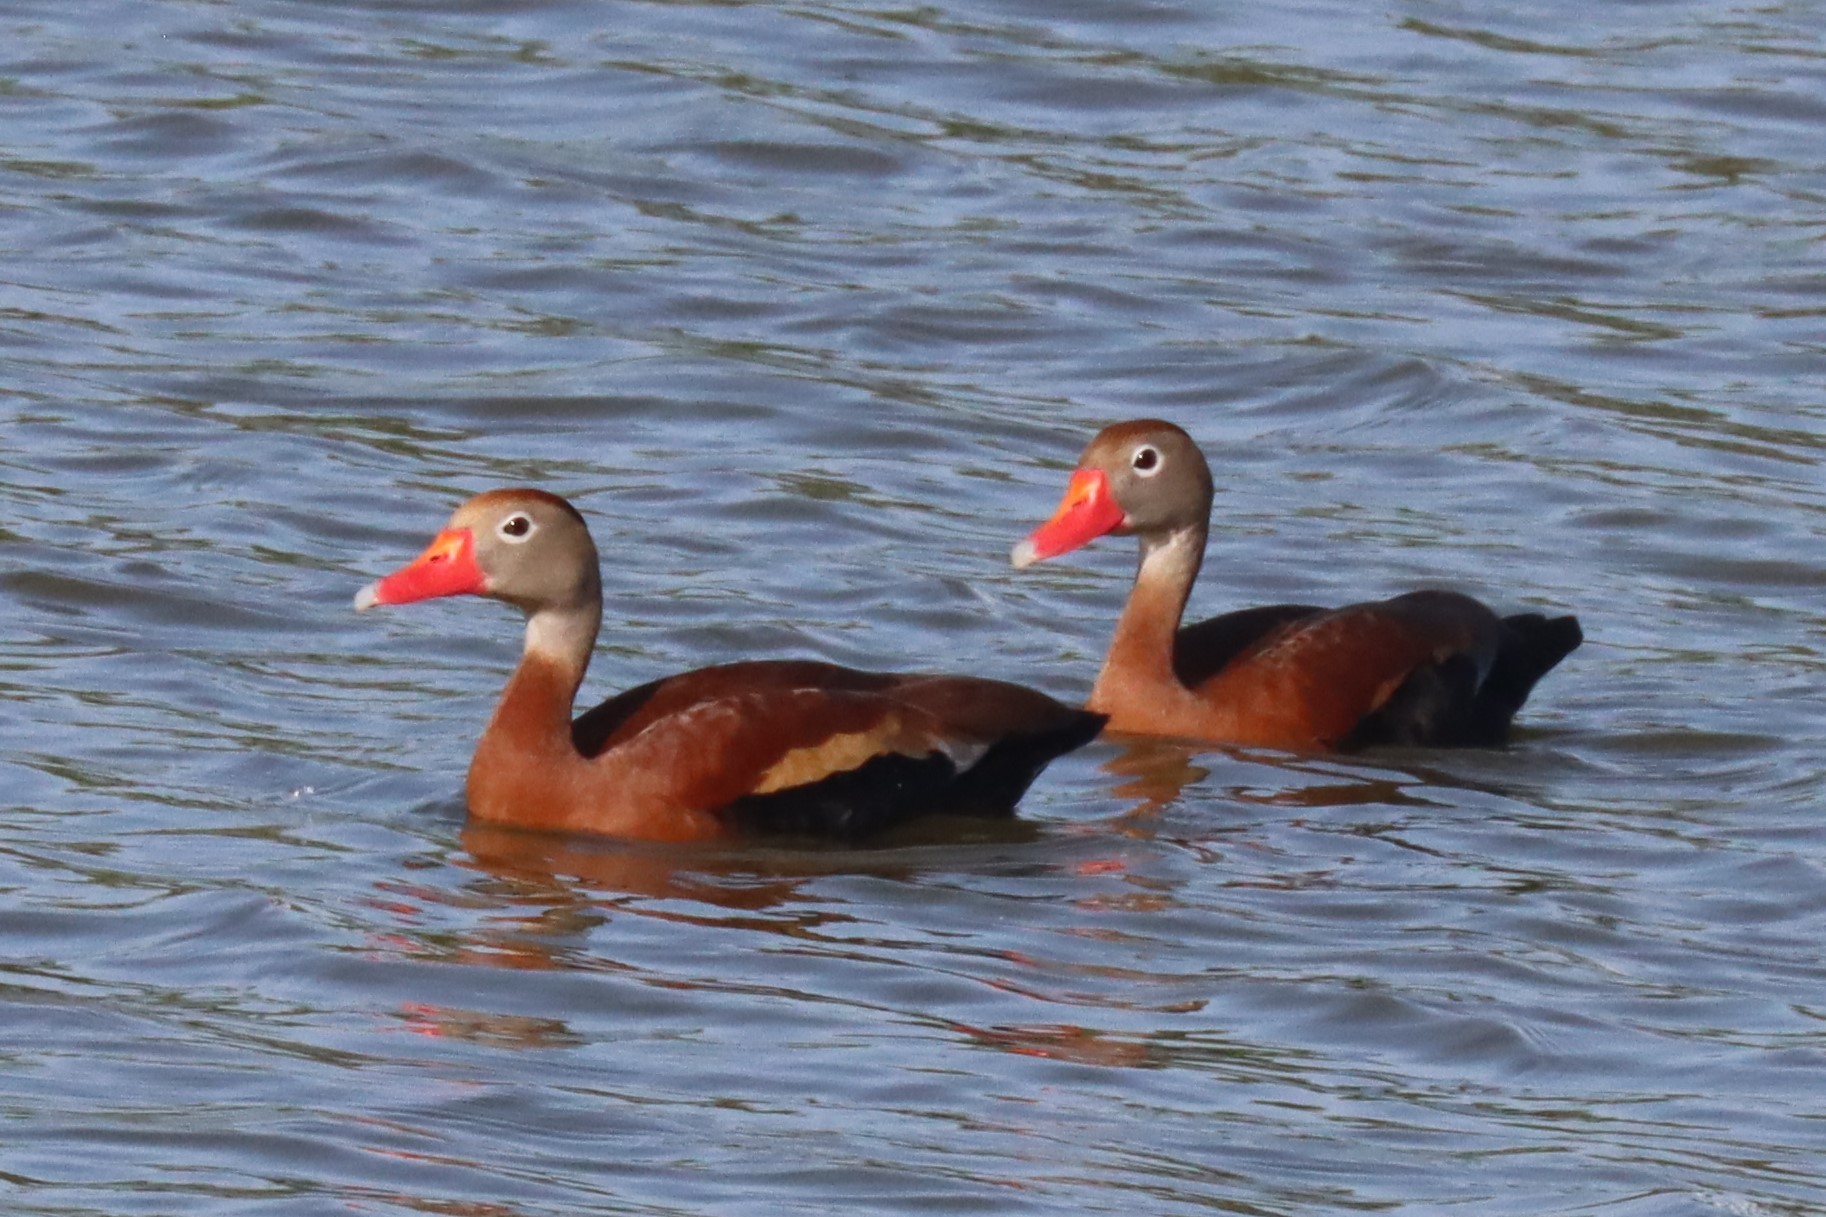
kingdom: Animalia
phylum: Chordata
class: Aves
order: Anseriformes
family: Anatidae
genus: Dendrocygna
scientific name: Dendrocygna autumnalis
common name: Black-bellied whistling duck
